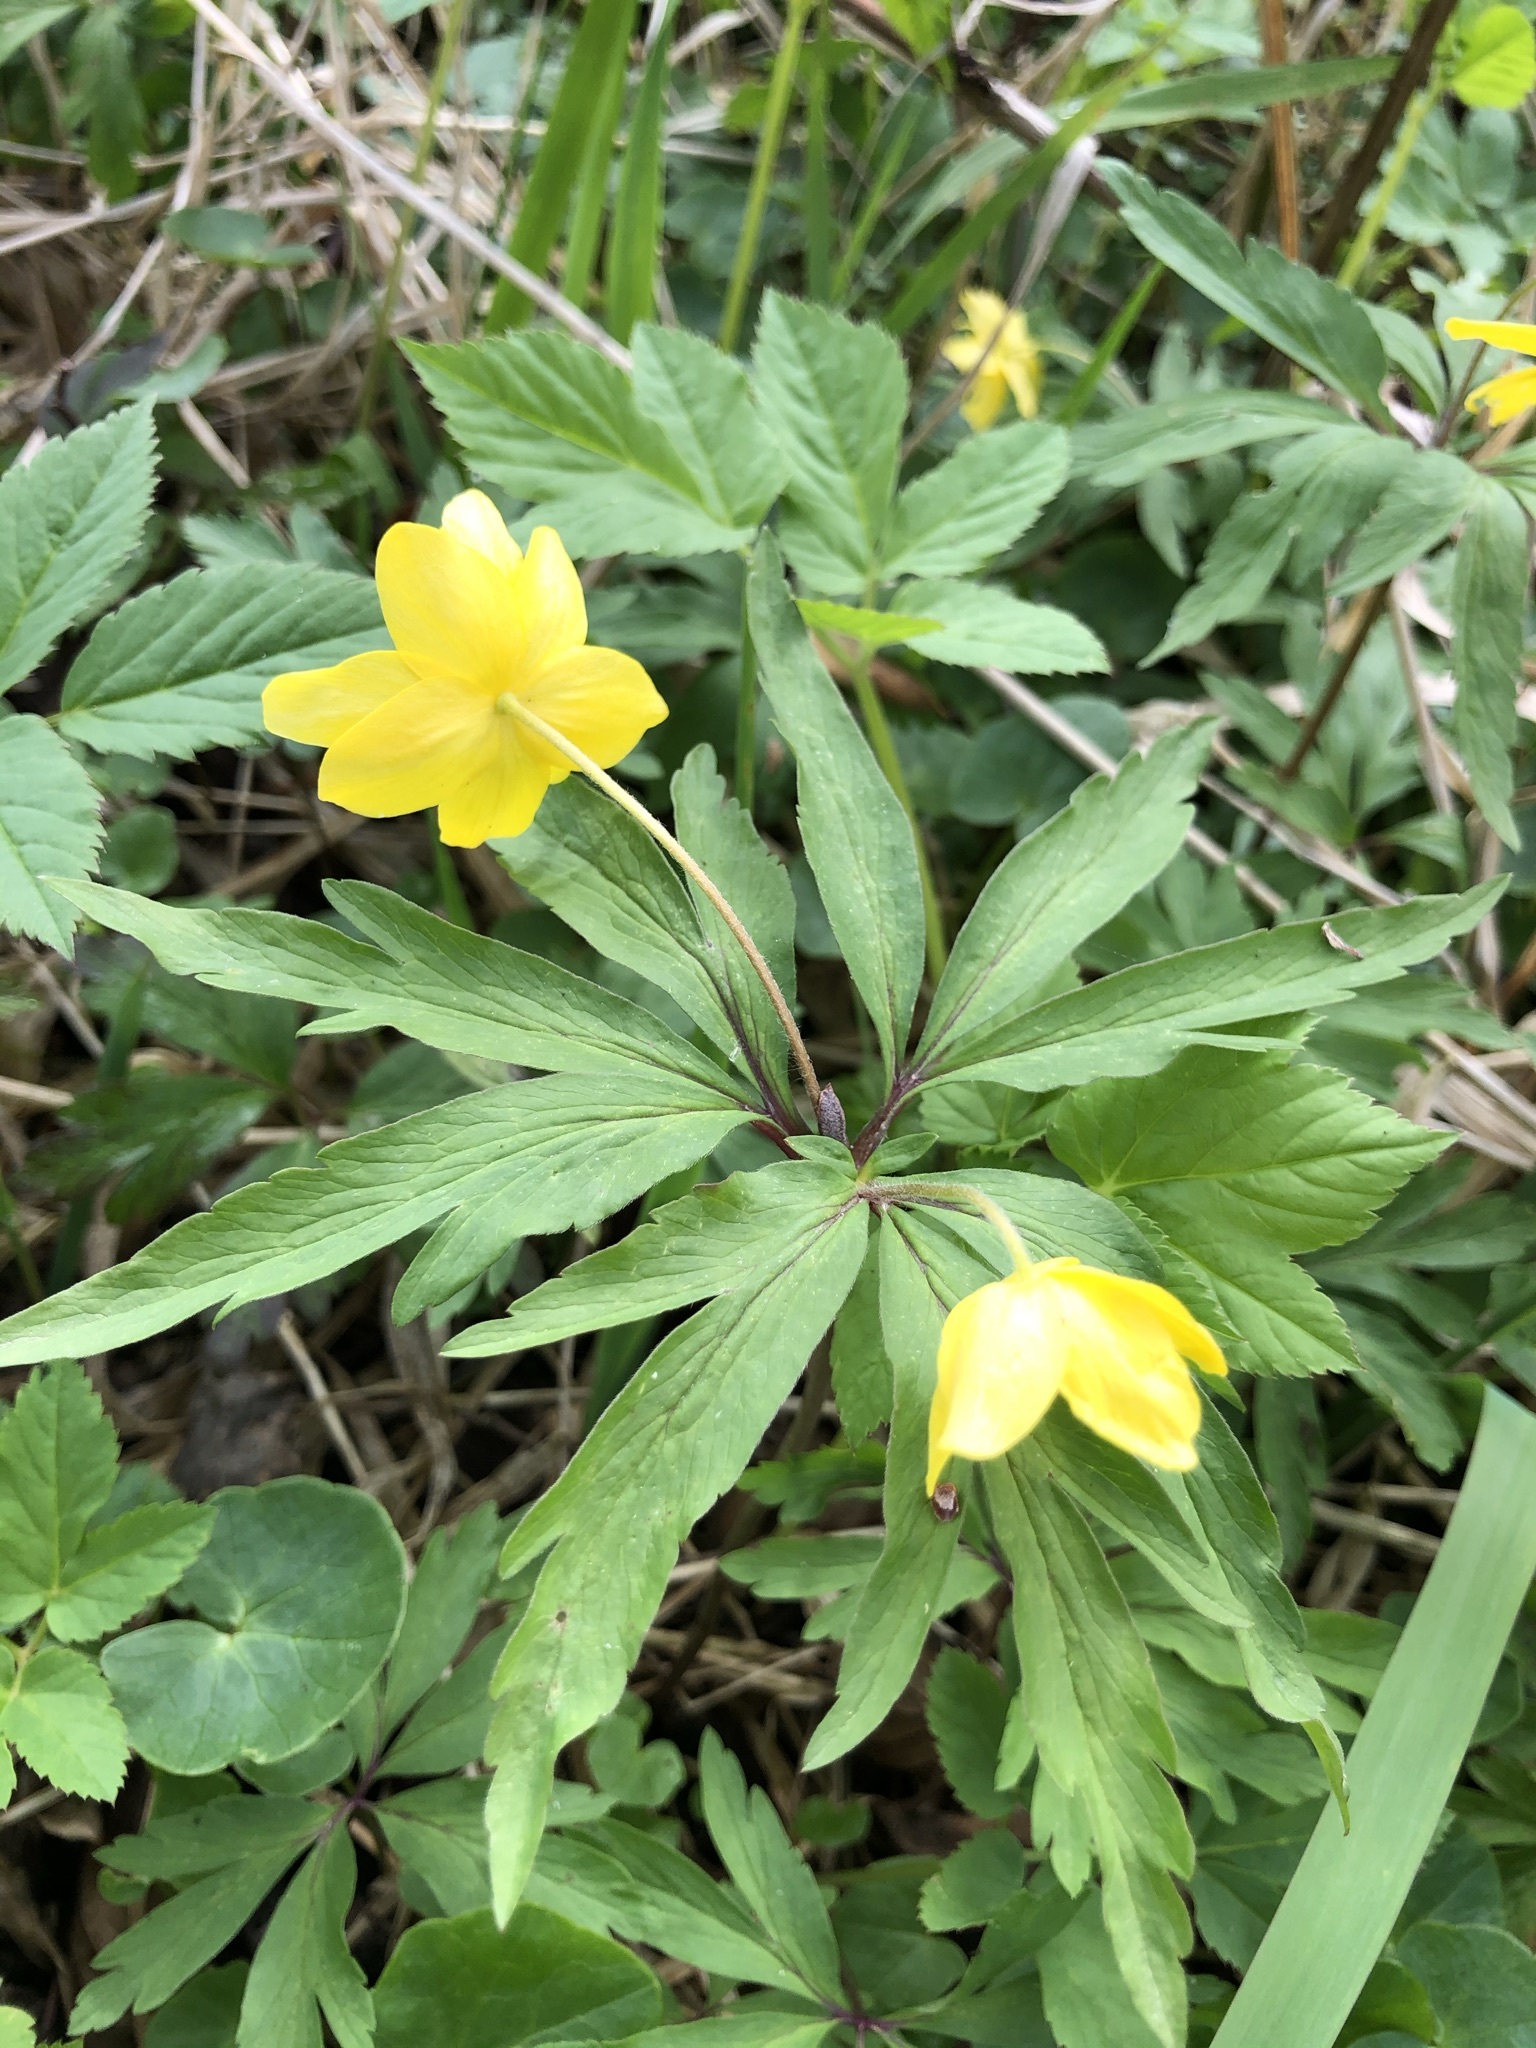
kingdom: Plantae
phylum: Tracheophyta
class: Magnoliopsida
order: Ranunculales
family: Ranunculaceae
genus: Anemone
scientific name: Anemone ranunculoides
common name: Yellow anemone
